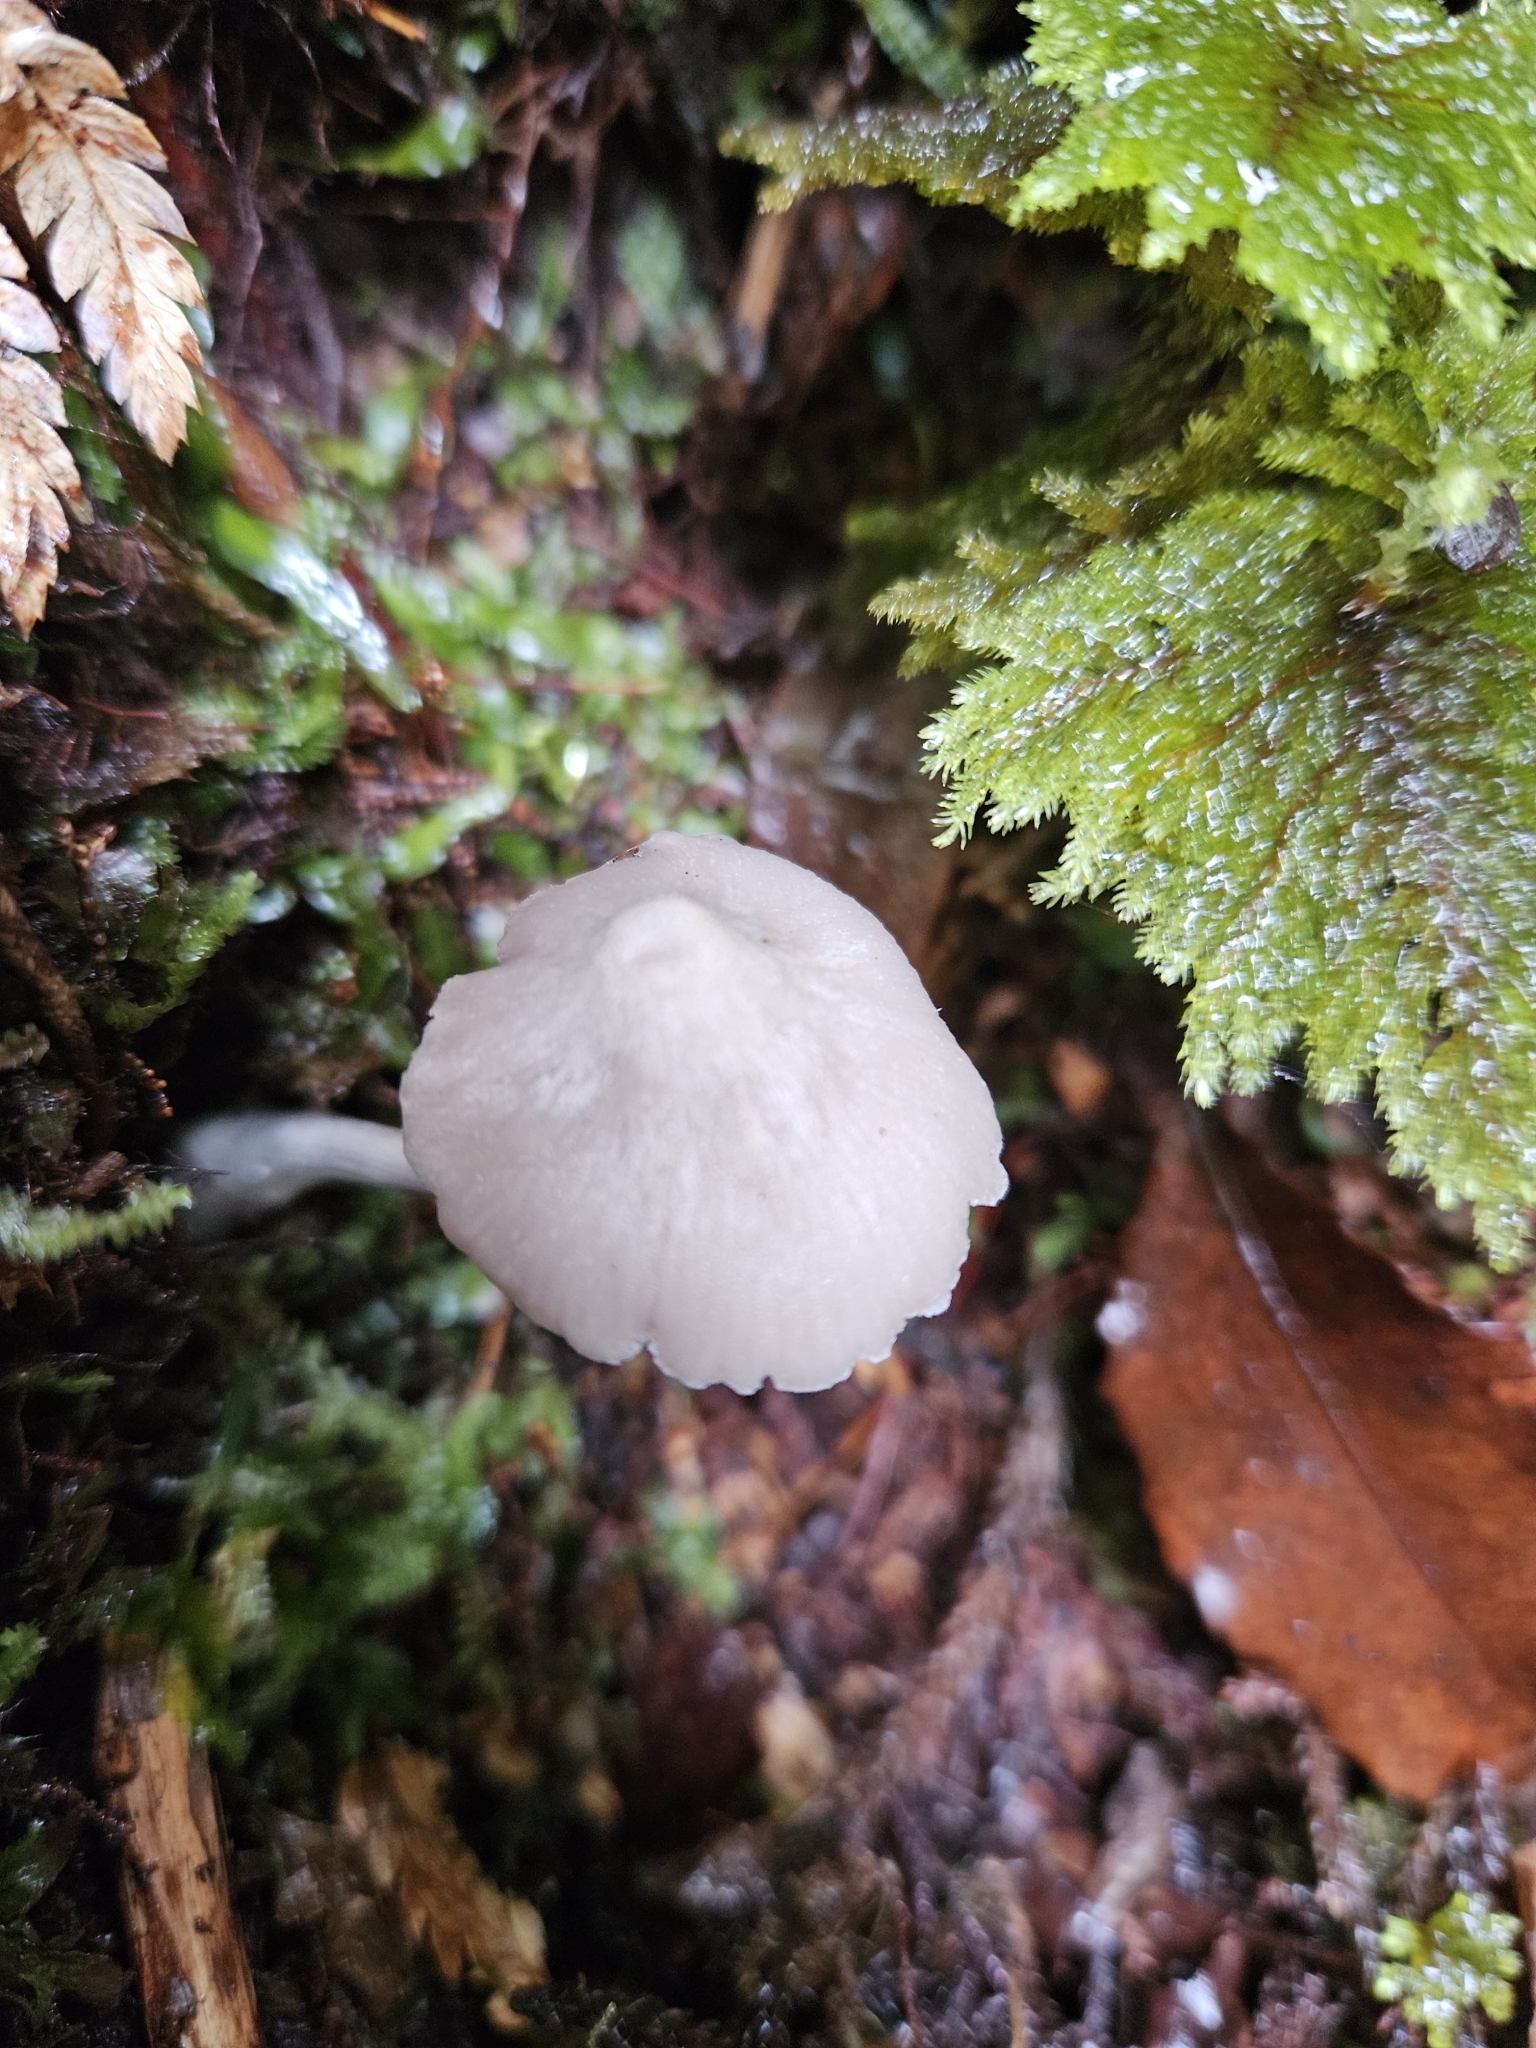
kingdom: Fungi
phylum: Basidiomycota
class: Agaricomycetes
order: Agaricales
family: Entolomataceae
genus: Entoloma
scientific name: Entoloma canoconicum
